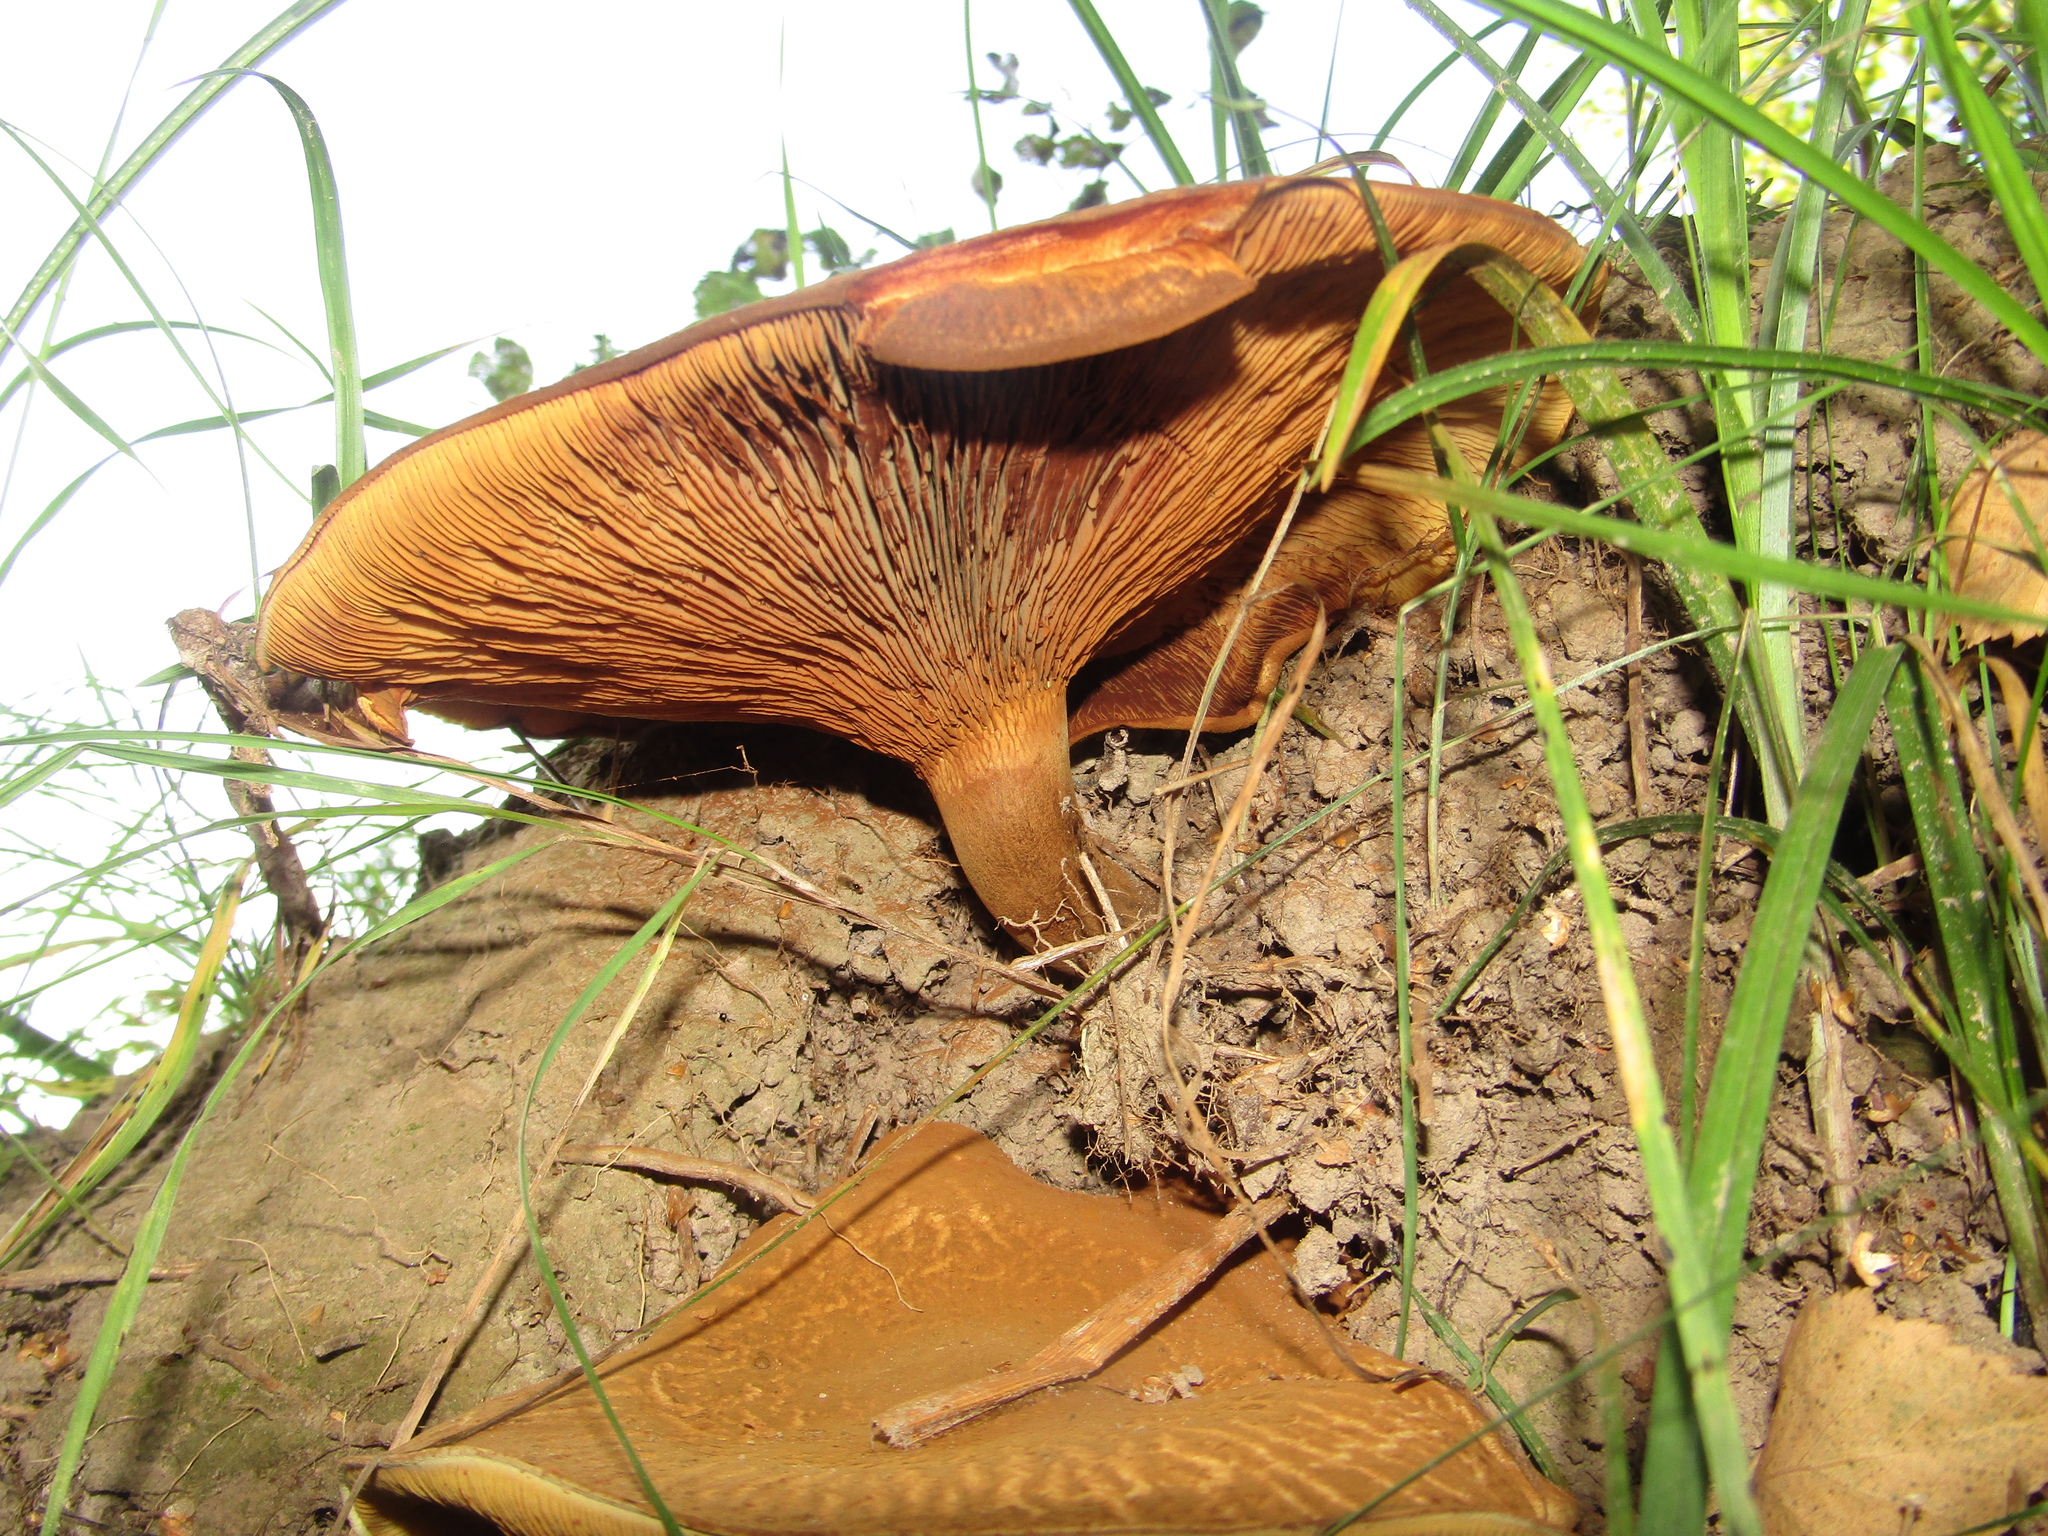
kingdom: Fungi
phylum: Basidiomycota
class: Agaricomycetes
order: Boletales
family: Paxillaceae
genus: Paxillus
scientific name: Paxillus involutus
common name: Brown roll rim
